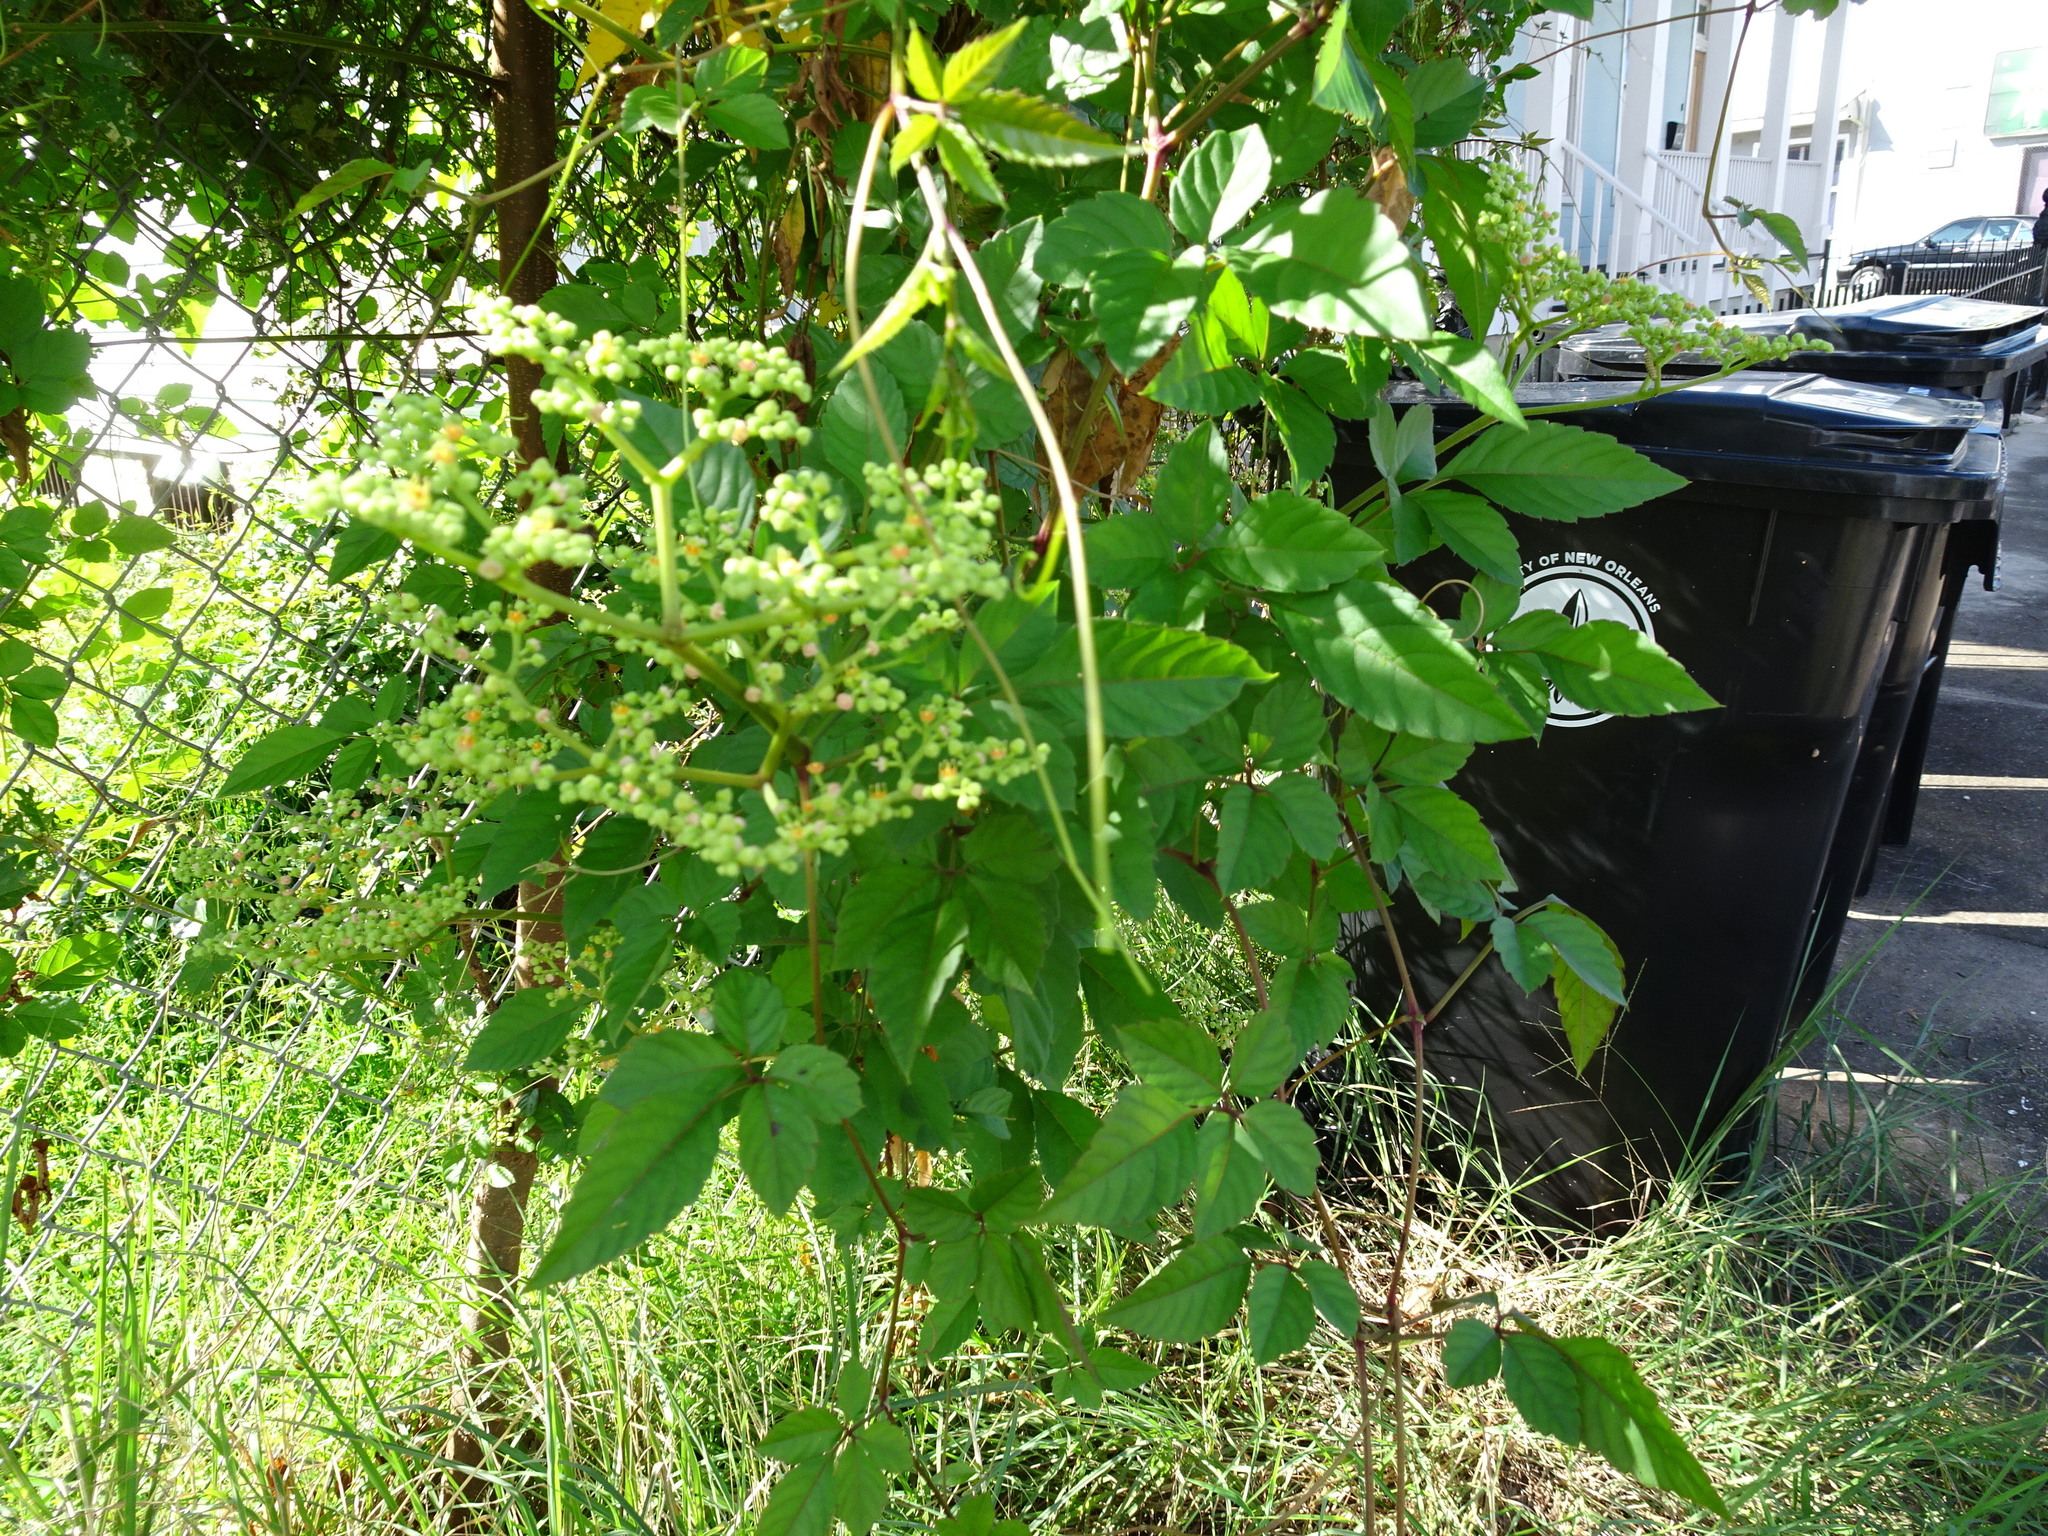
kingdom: Plantae
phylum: Tracheophyta
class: Magnoliopsida
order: Vitales
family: Vitaceae
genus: Causonis
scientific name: Causonis japonica
